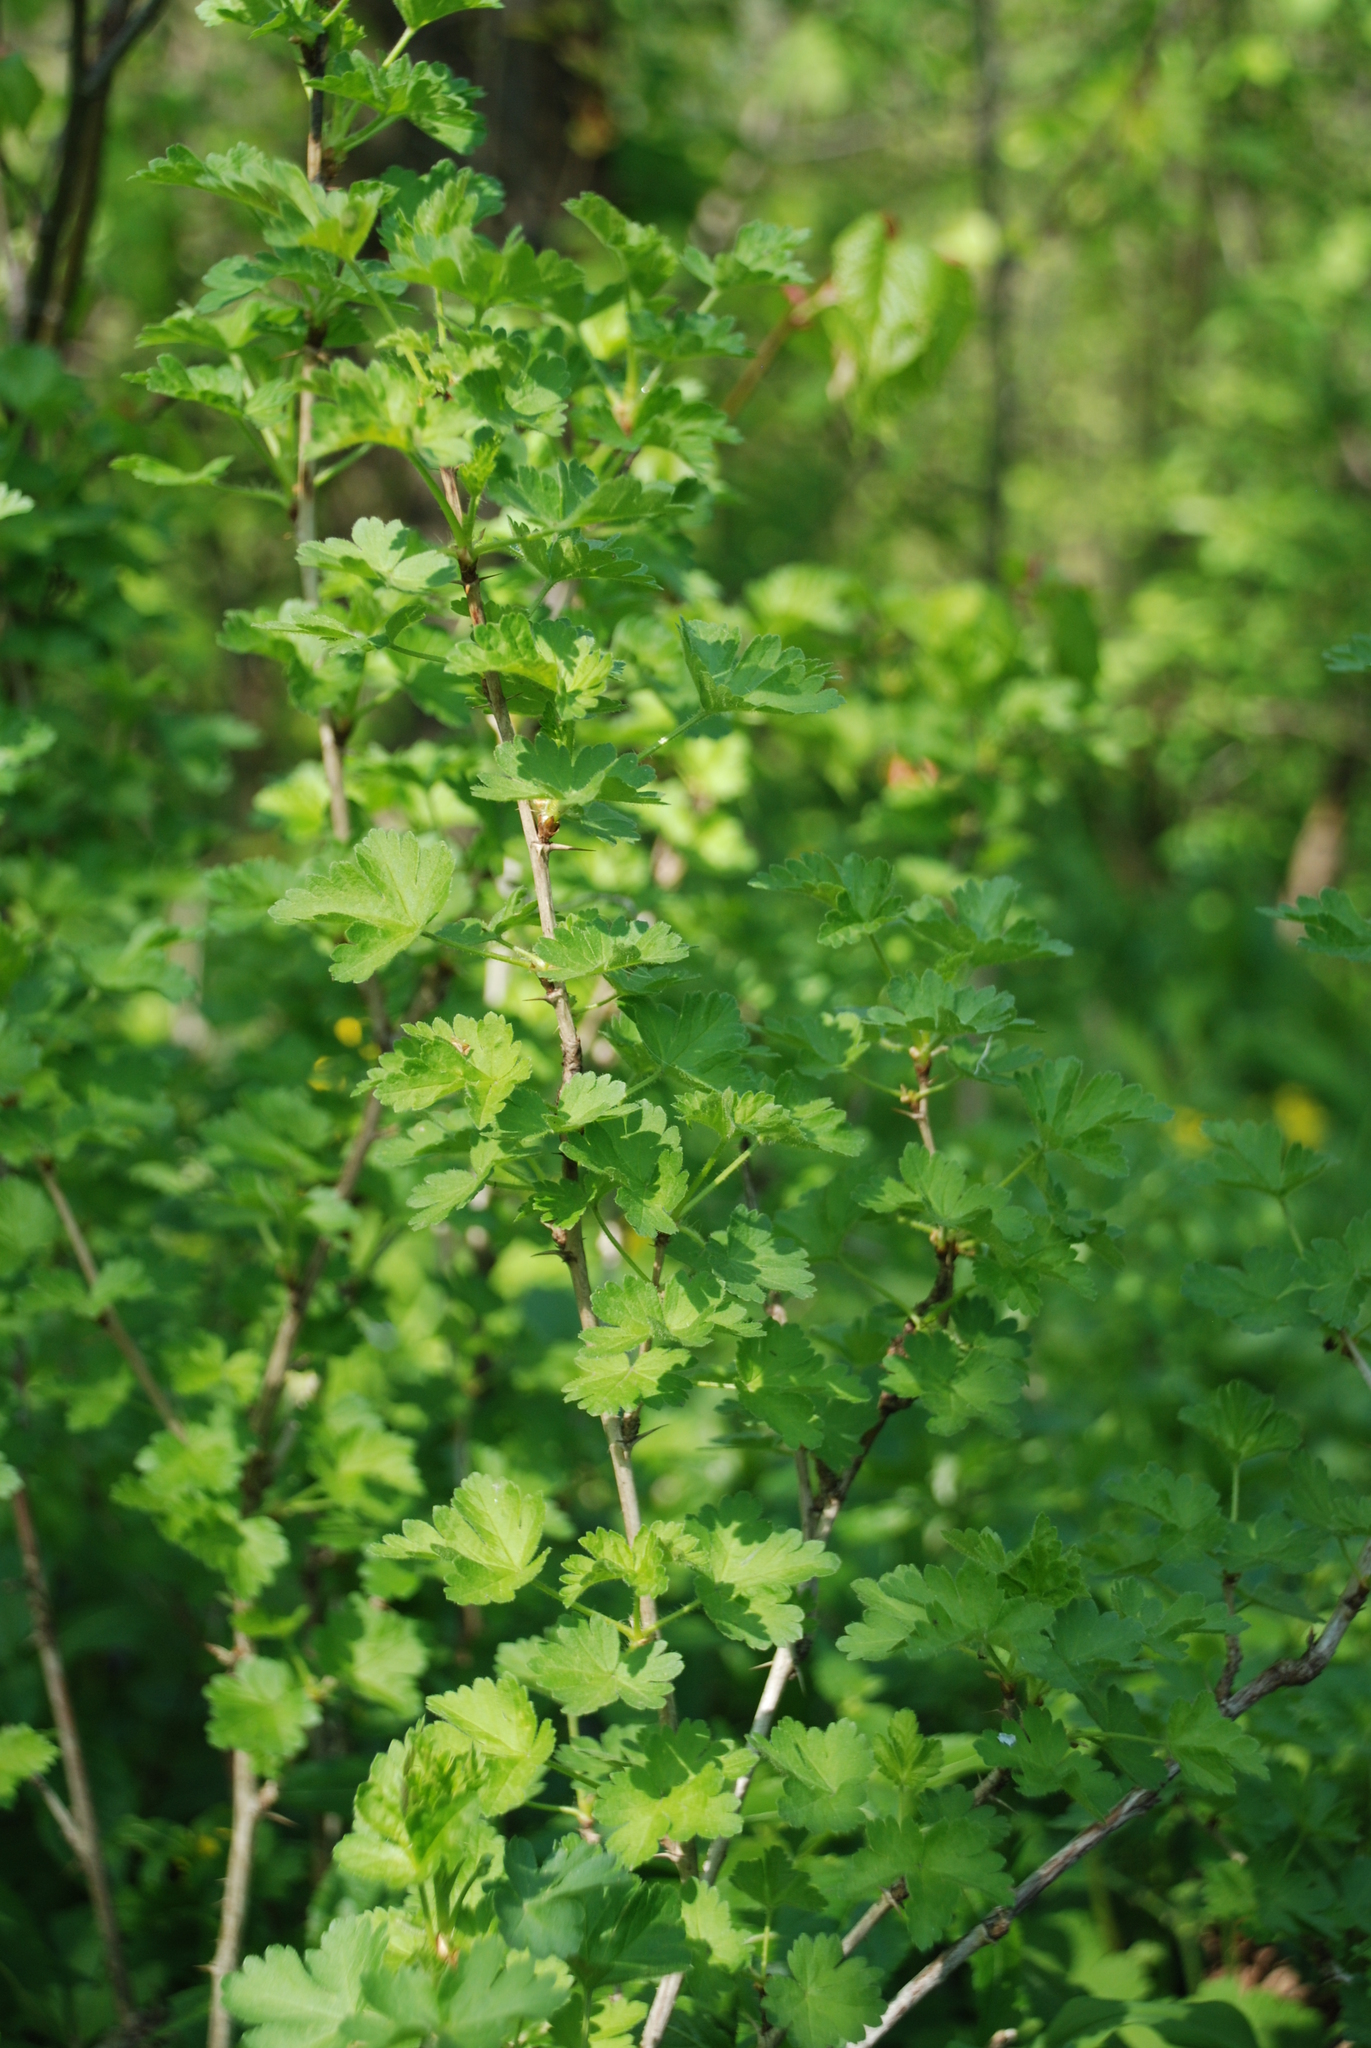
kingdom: Plantae
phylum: Tracheophyta
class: Magnoliopsida
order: Saxifragales
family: Grossulariaceae
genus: Ribes
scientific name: Ribes uva-crispa
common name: Gooseberry
